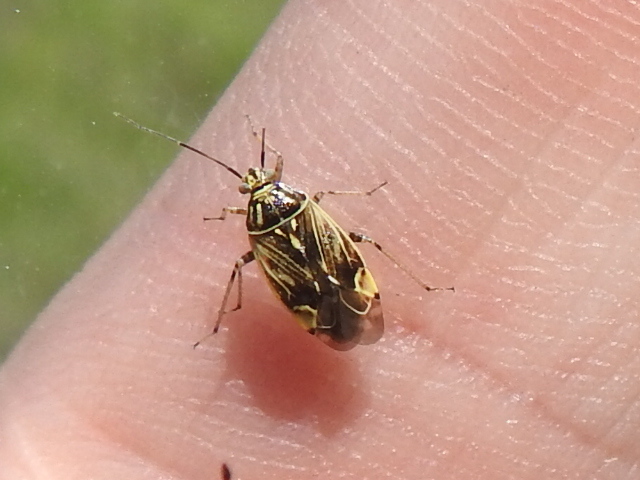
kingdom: Animalia
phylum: Arthropoda
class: Insecta
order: Hemiptera
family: Miridae
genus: Lygus
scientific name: Lygus lineolaris
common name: North american tarnished plant bug
